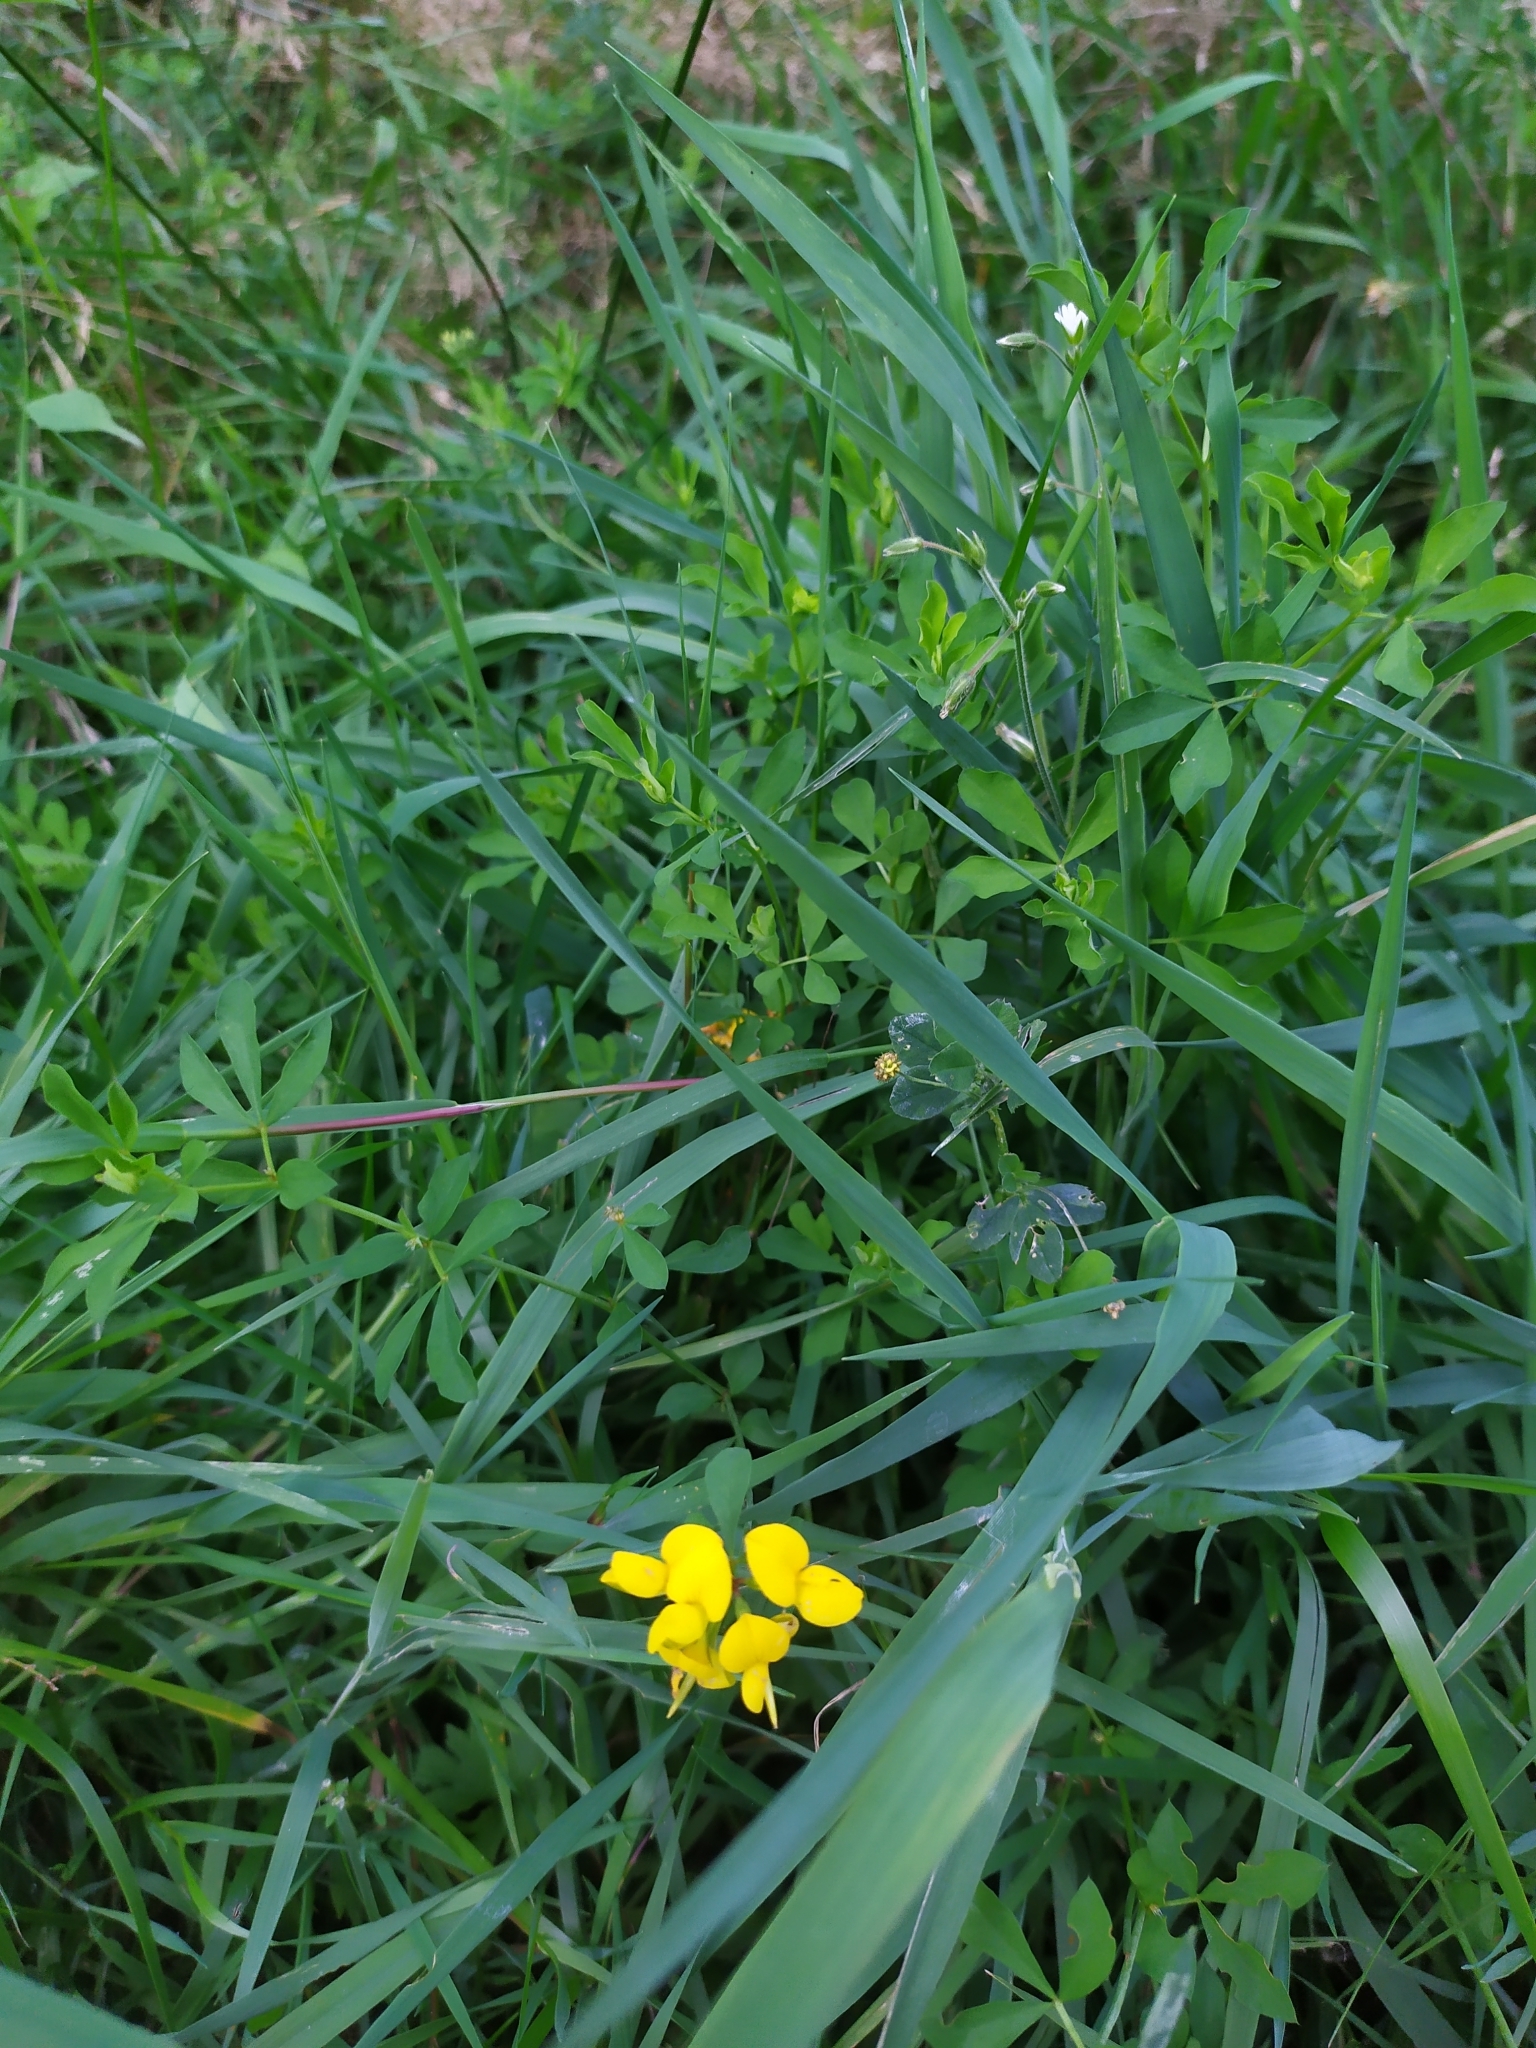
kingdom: Plantae
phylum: Tracheophyta
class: Magnoliopsida
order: Fabales
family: Fabaceae
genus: Lotus
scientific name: Lotus corniculatus
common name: Common bird's-foot-trefoil
